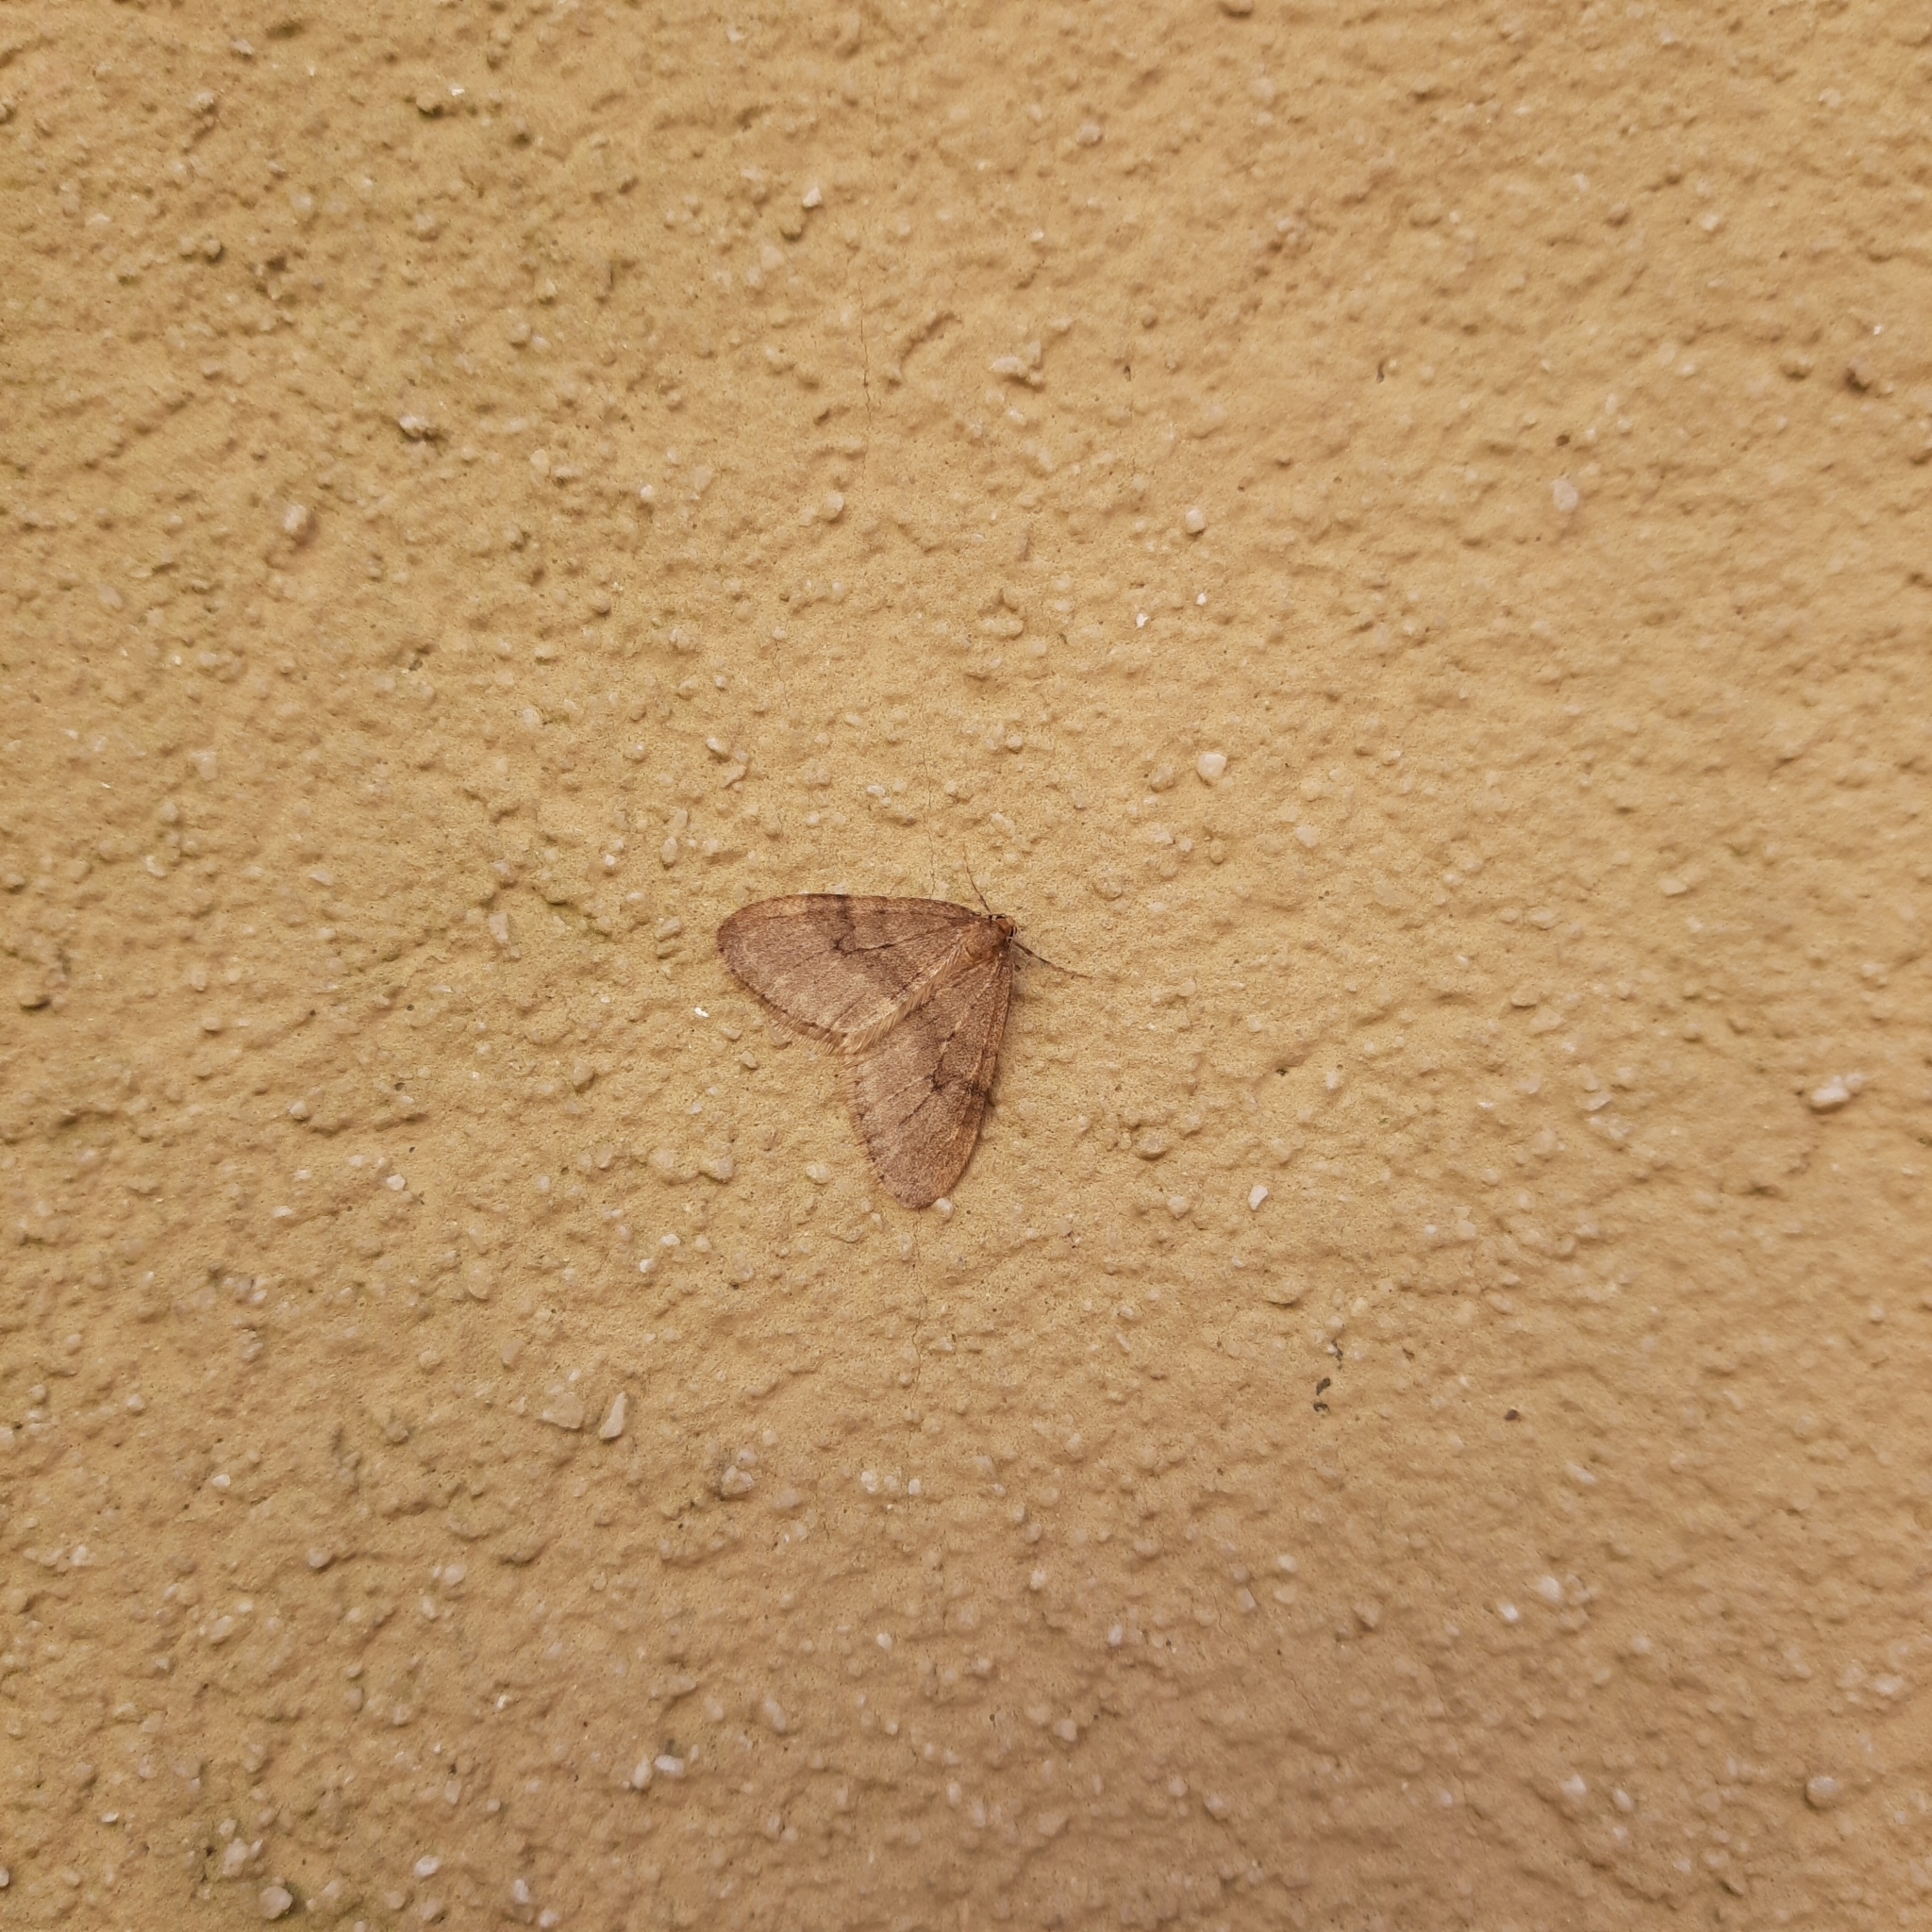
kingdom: Animalia
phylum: Arthropoda
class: Insecta
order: Lepidoptera
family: Geometridae
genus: Operophtera
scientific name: Operophtera brumata
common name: Winter moth
